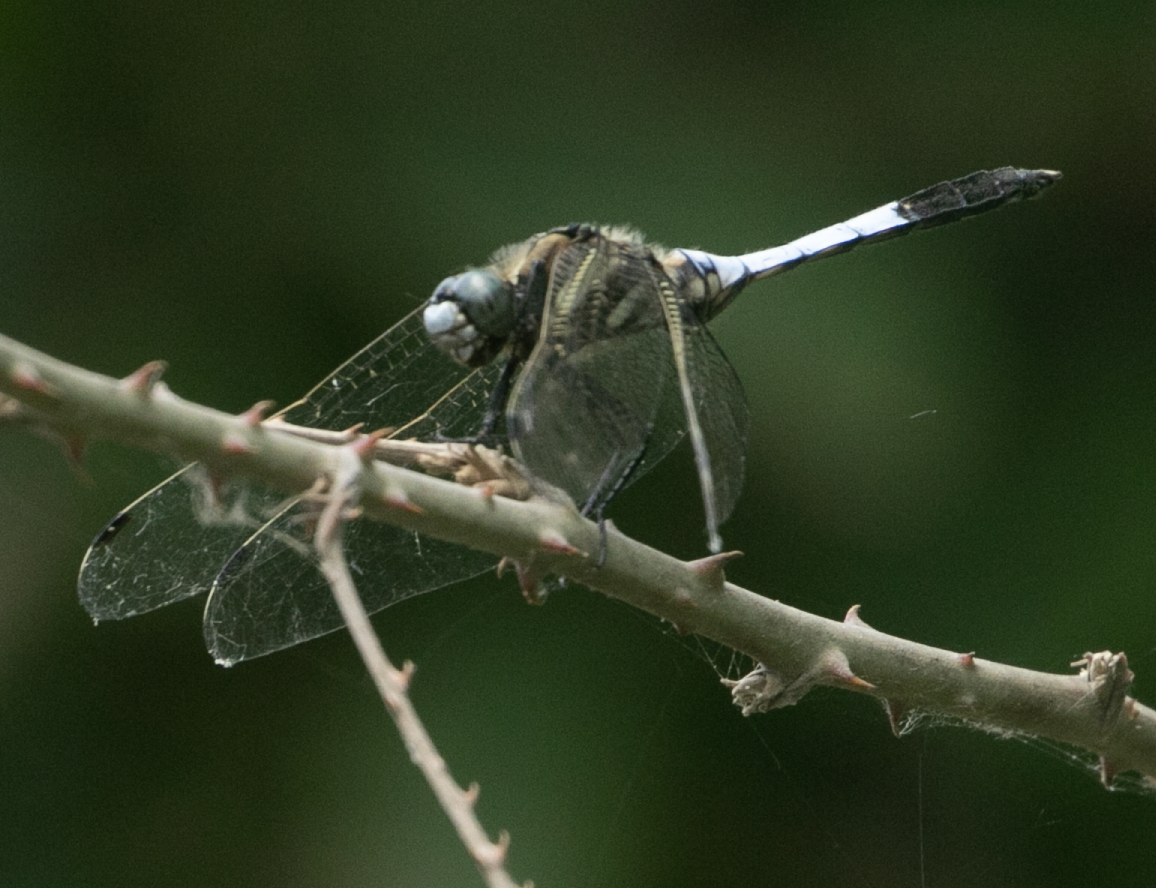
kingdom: Animalia
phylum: Arthropoda
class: Insecta
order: Odonata
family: Libellulidae
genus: Orthetrum
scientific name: Orthetrum albistylum
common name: White-tailed skimmer
